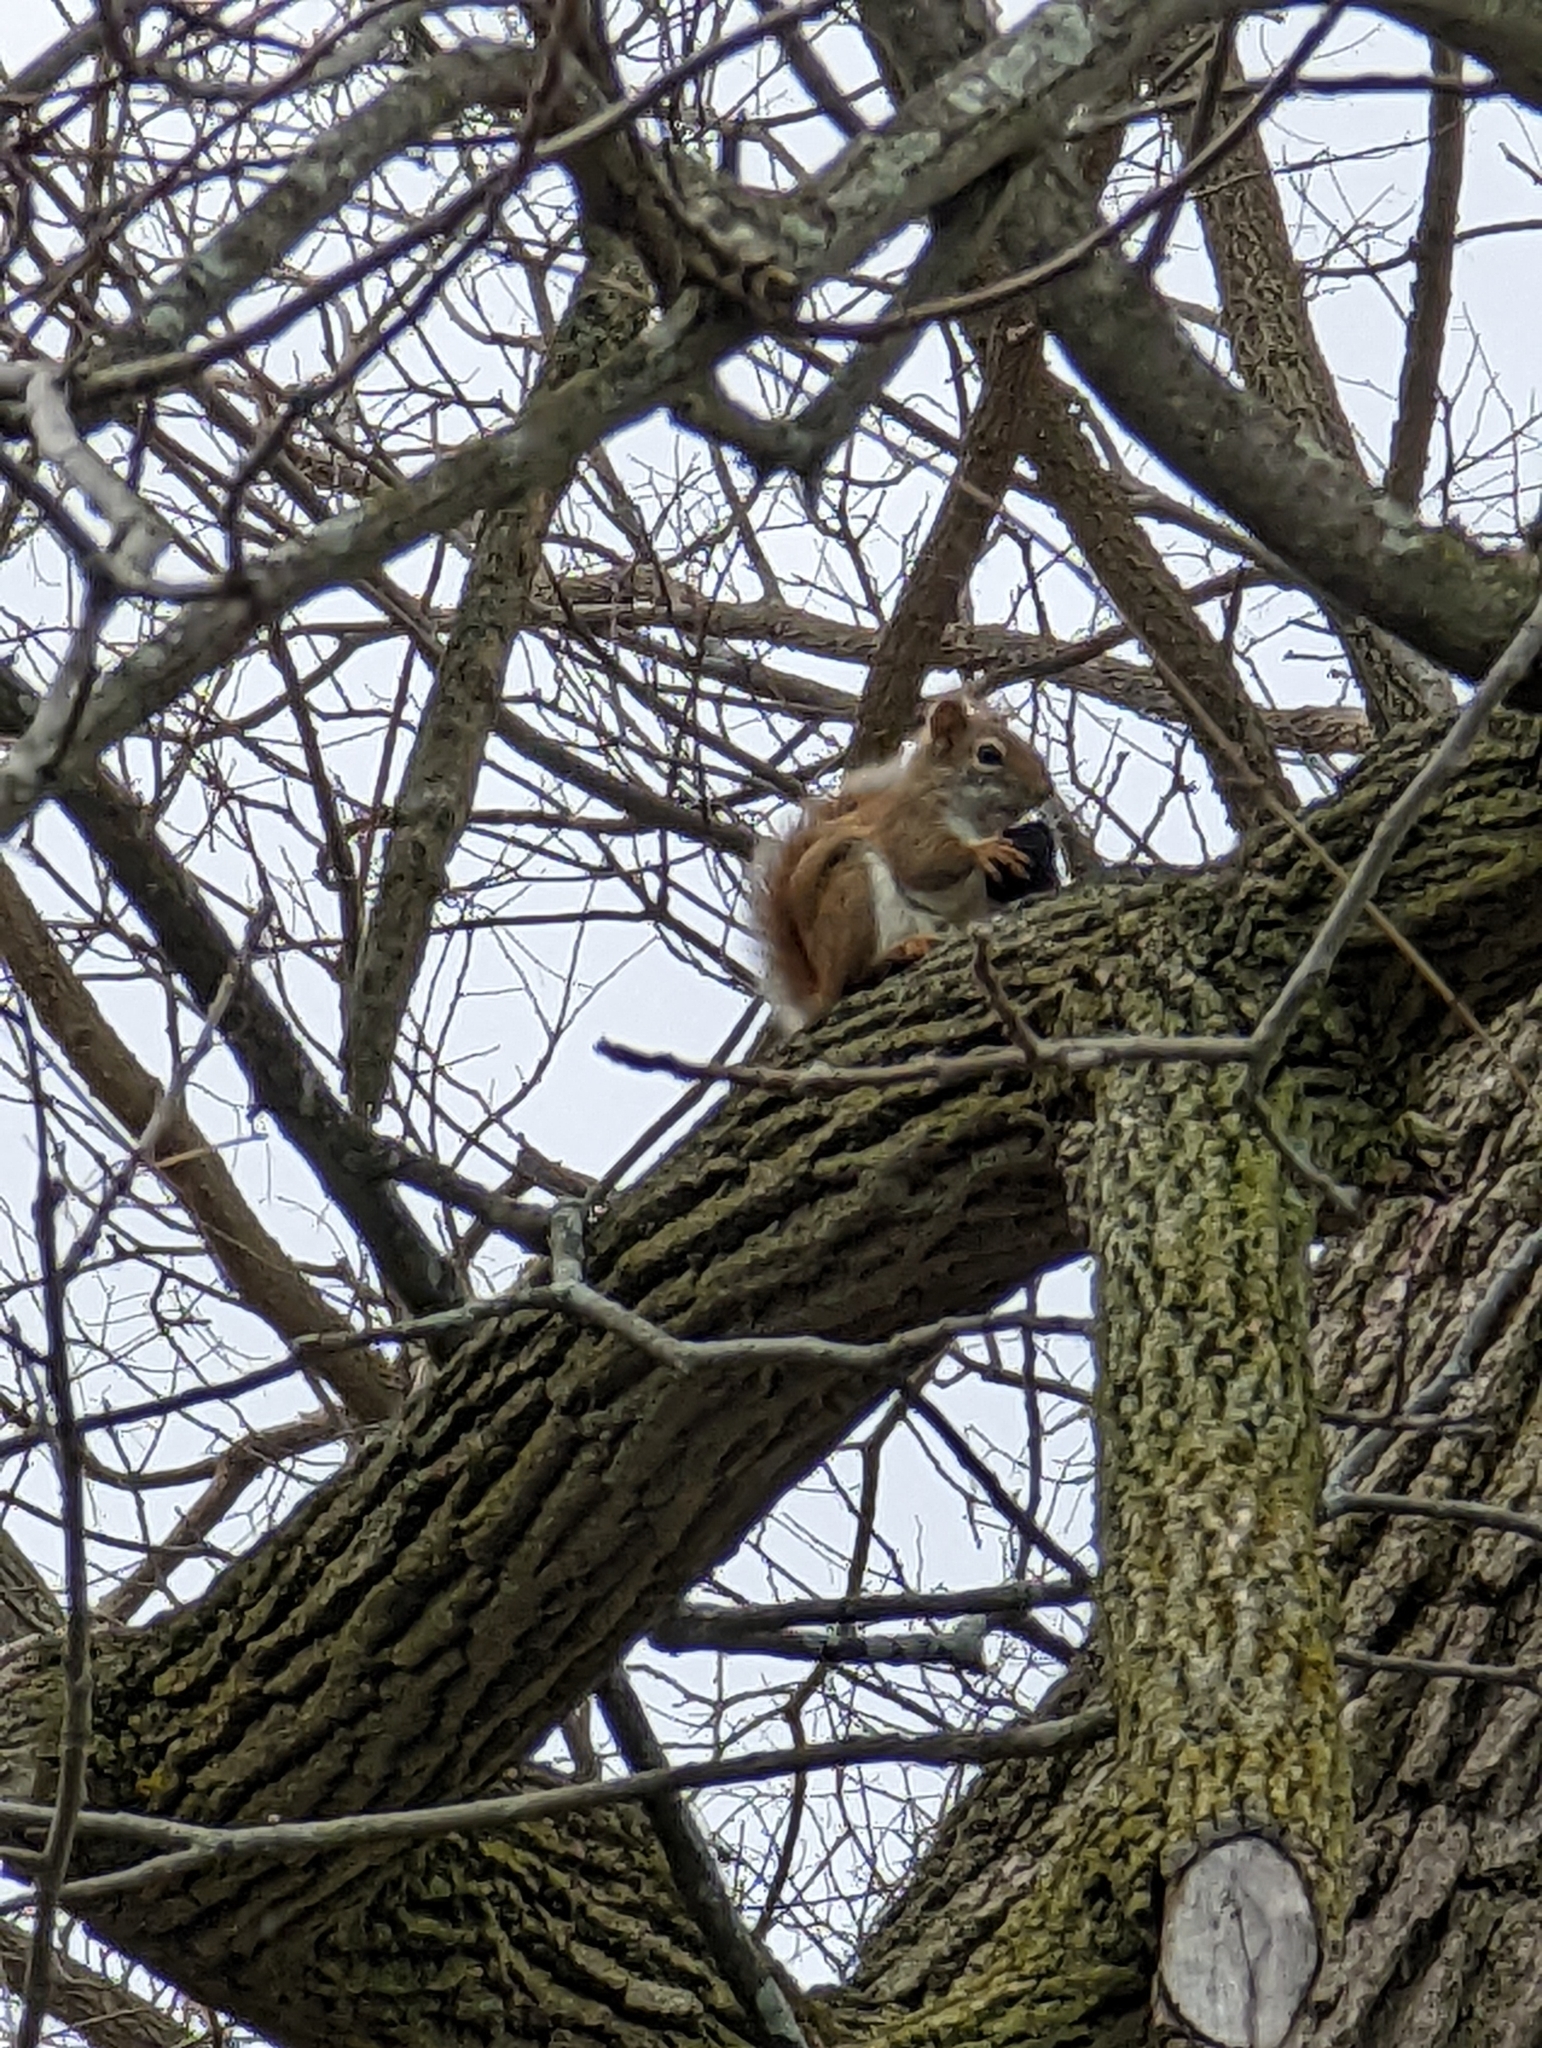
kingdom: Animalia
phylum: Chordata
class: Mammalia
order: Rodentia
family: Sciuridae
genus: Tamiasciurus
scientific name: Tamiasciurus hudsonicus
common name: Red squirrel
